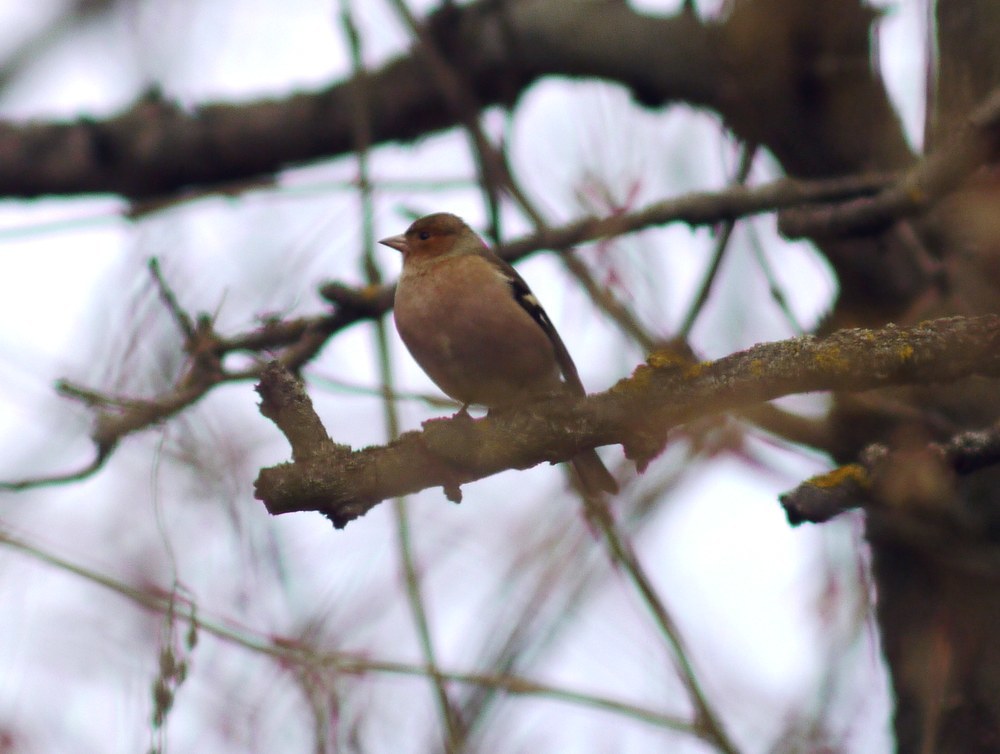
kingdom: Animalia
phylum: Chordata
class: Aves
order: Passeriformes
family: Fringillidae
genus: Fringilla
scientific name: Fringilla coelebs
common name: Common chaffinch
